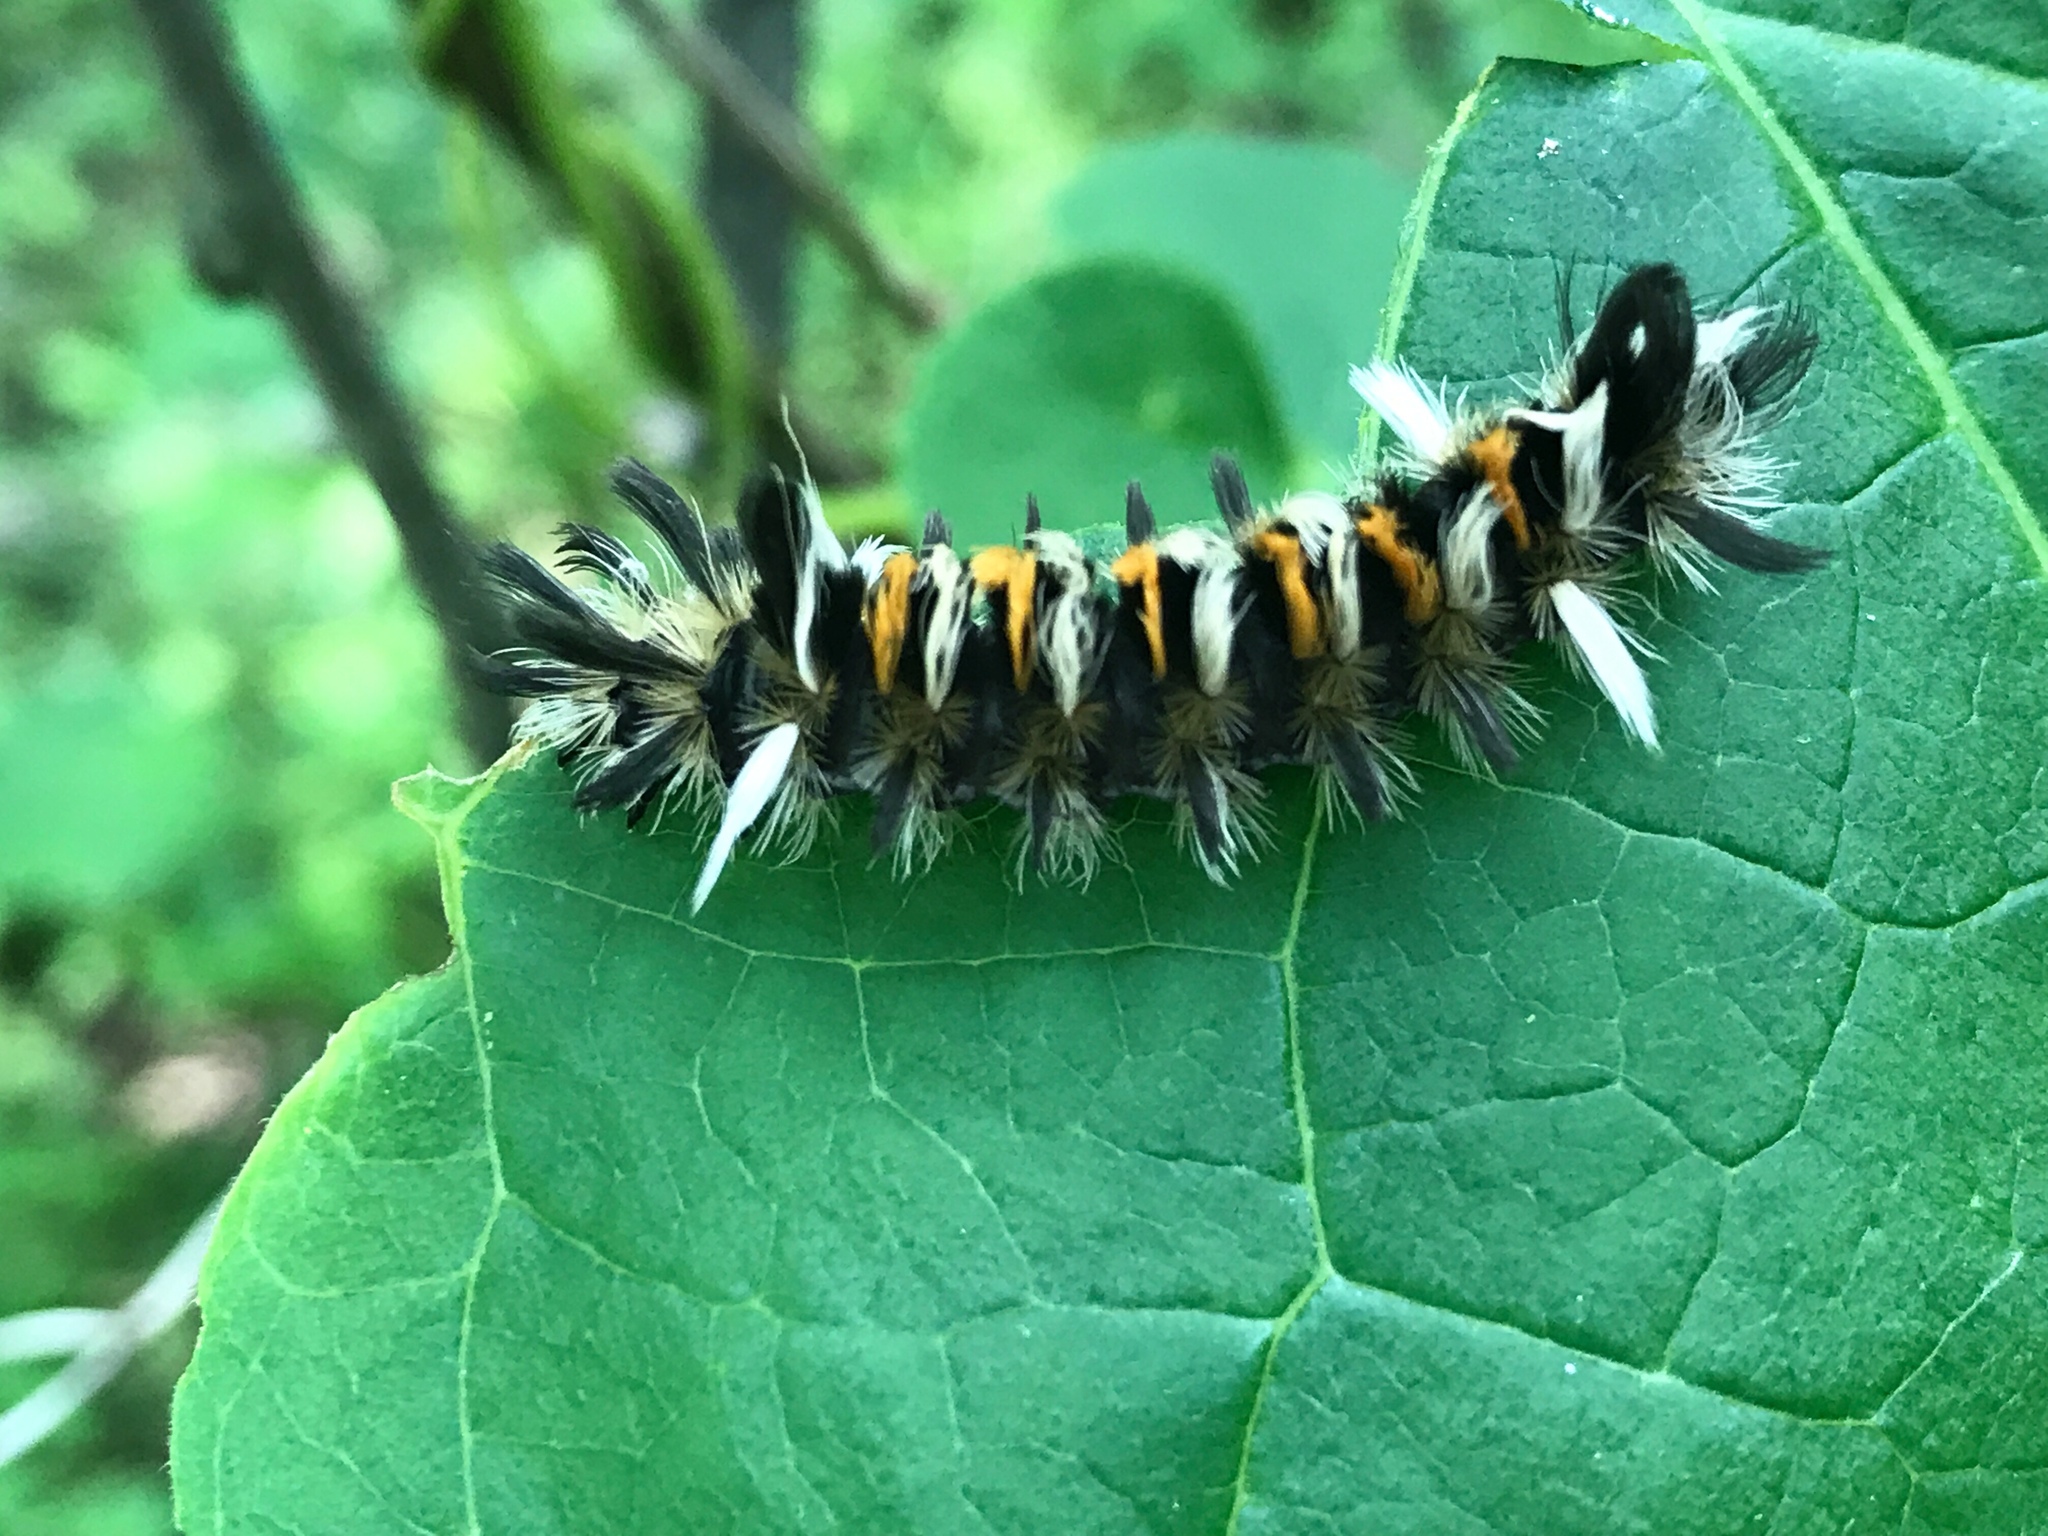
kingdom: Animalia
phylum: Arthropoda
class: Insecta
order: Lepidoptera
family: Erebidae
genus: Euchaetes
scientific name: Euchaetes egle
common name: Milkweed tussock moth
